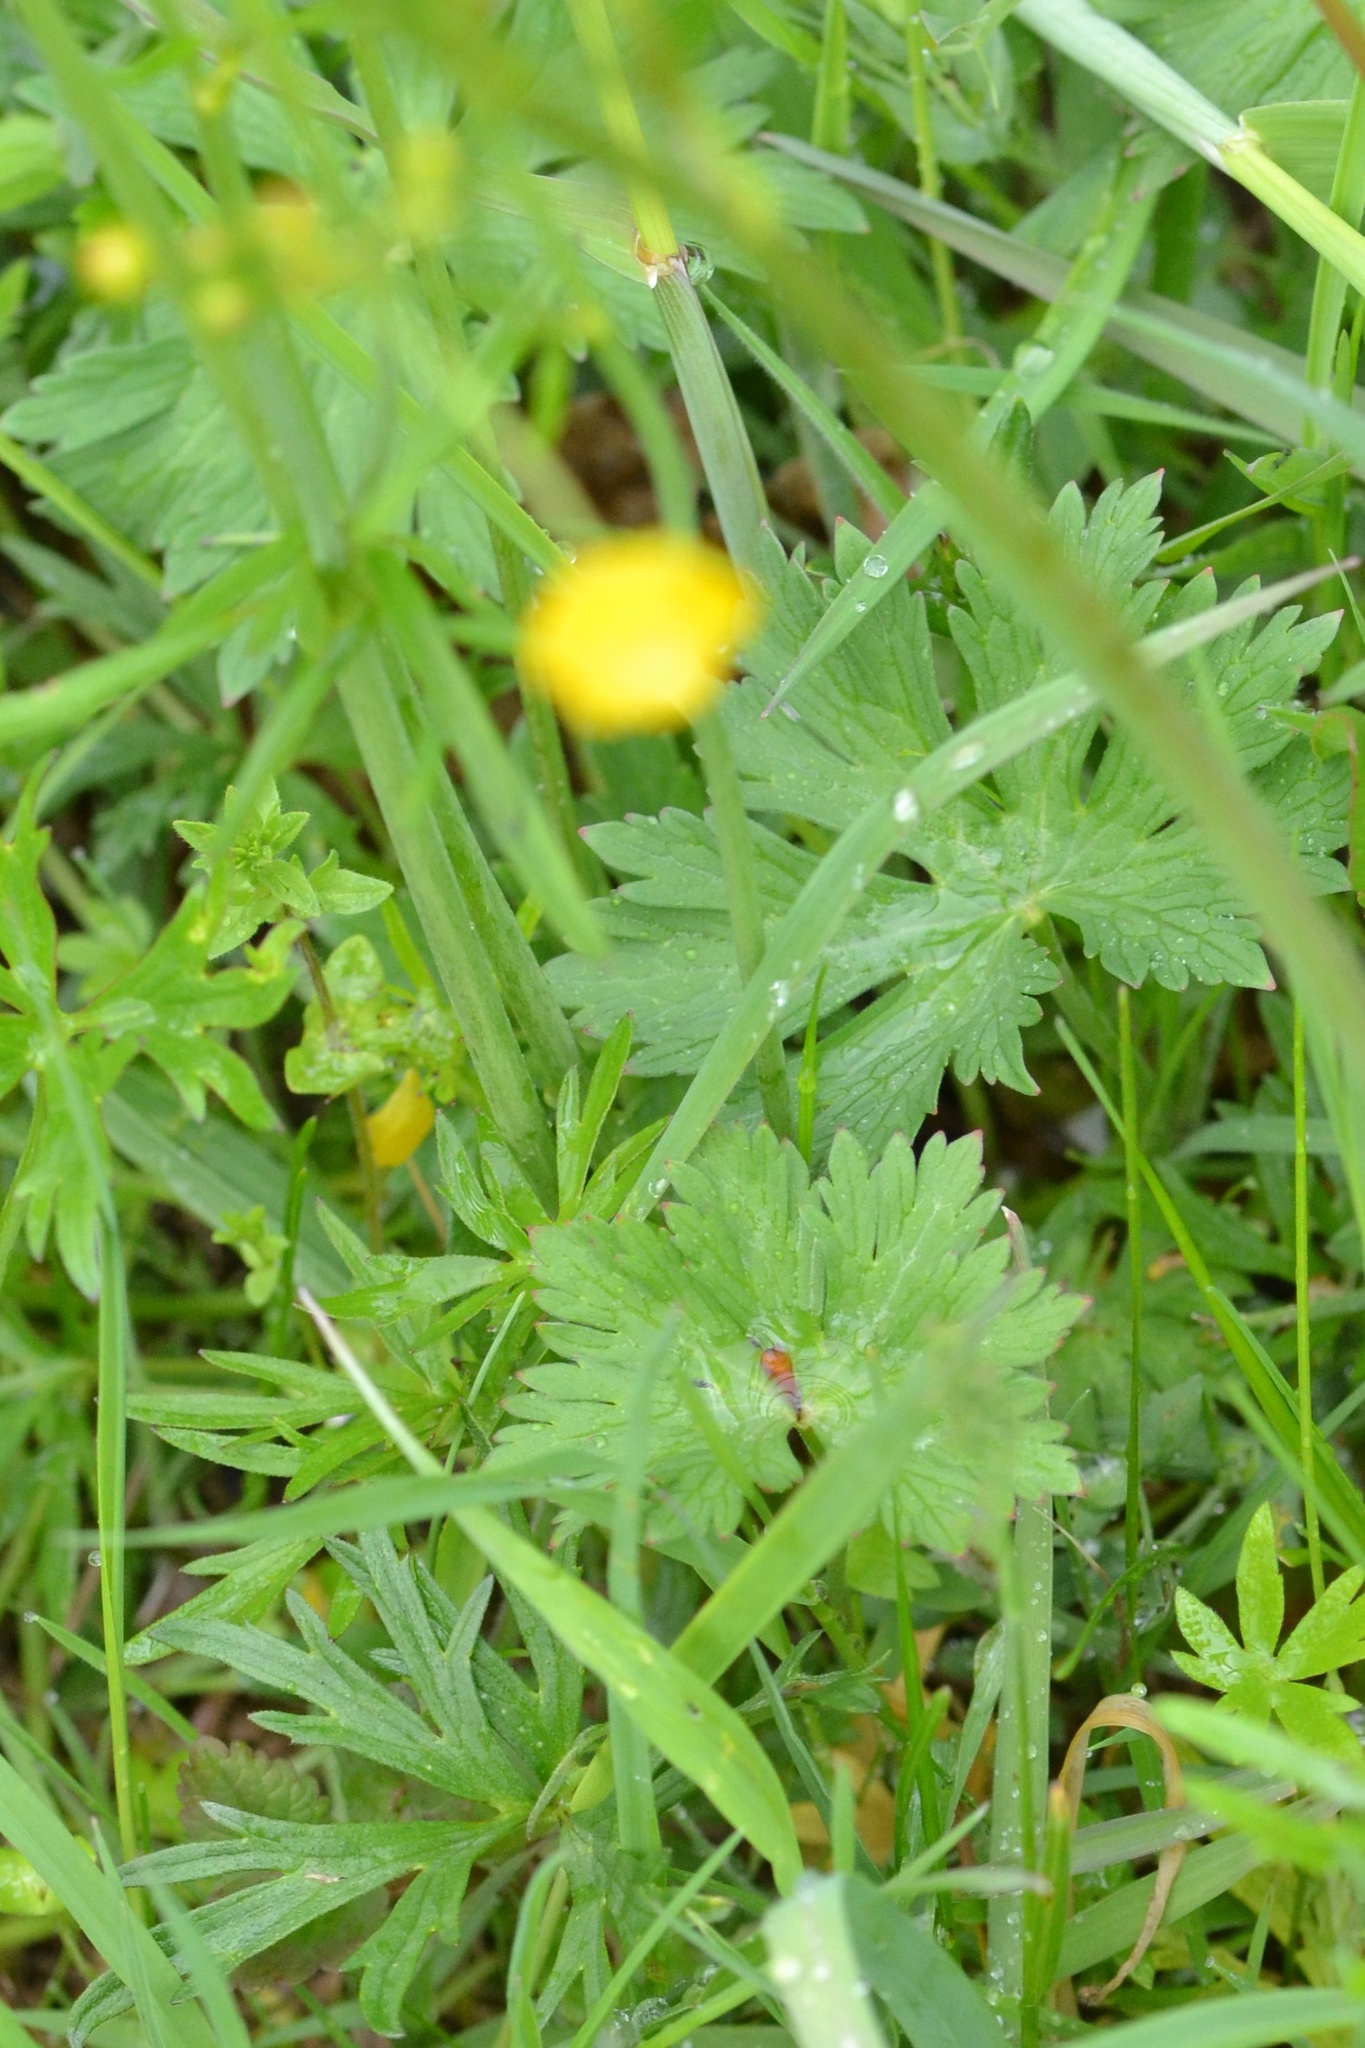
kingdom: Plantae
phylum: Tracheophyta
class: Magnoliopsida
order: Ranunculales
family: Ranunculaceae
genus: Ranunculus
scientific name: Ranunculus acris
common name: Meadow buttercup
